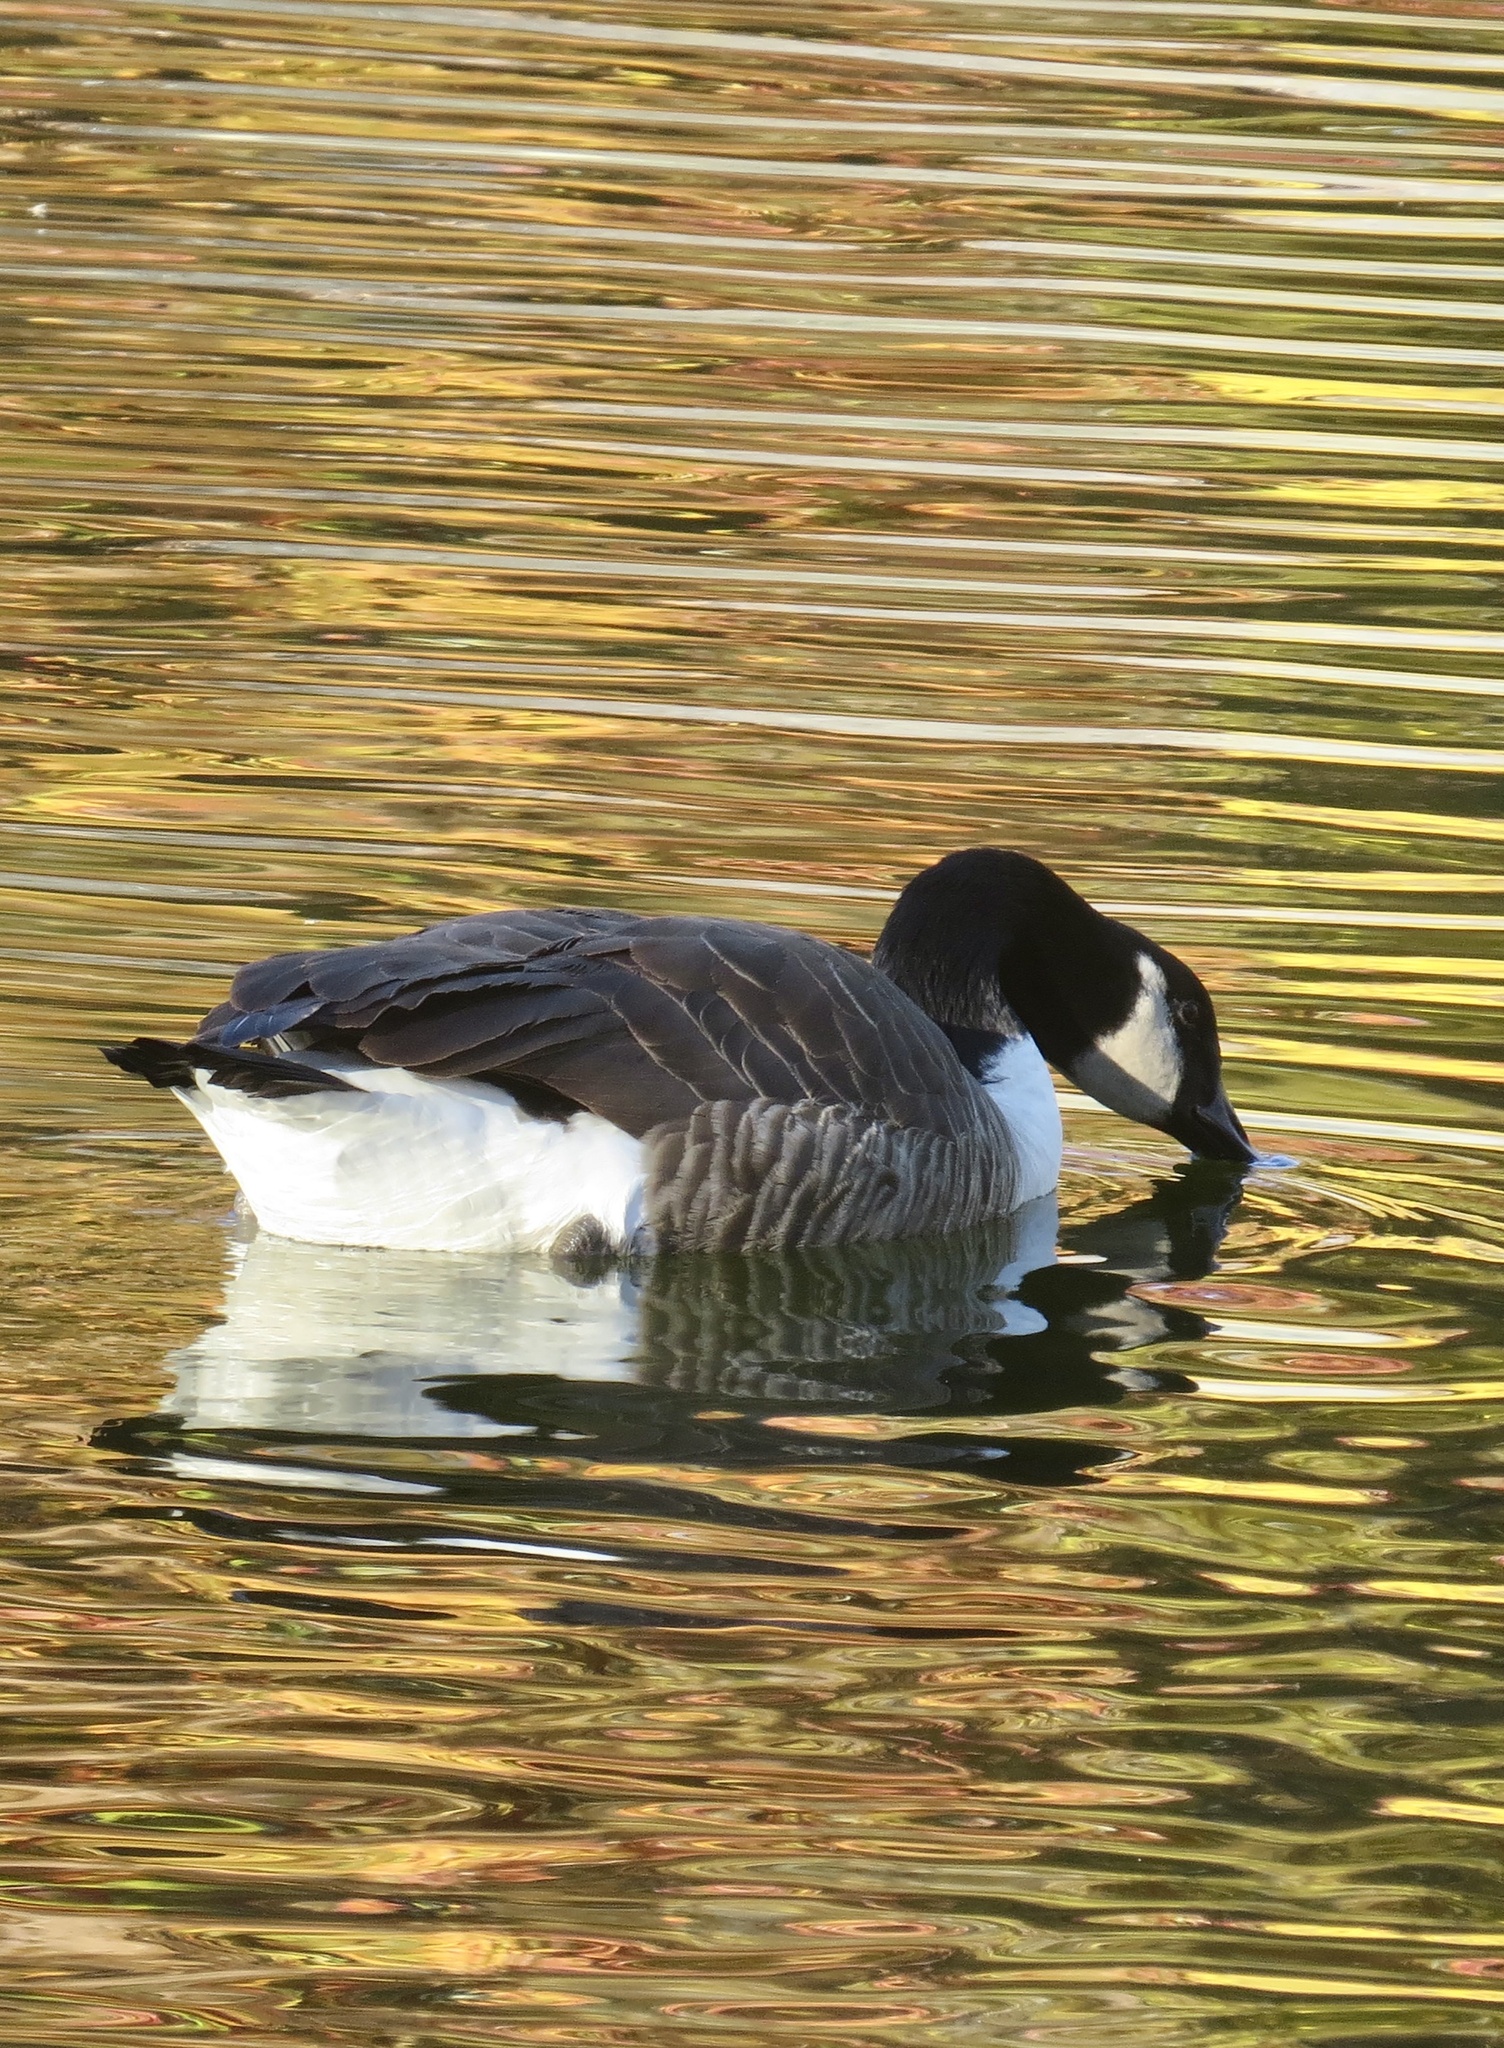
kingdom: Animalia
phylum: Chordata
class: Aves
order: Anseriformes
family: Anatidae
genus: Branta
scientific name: Branta canadensis
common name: Canada goose
